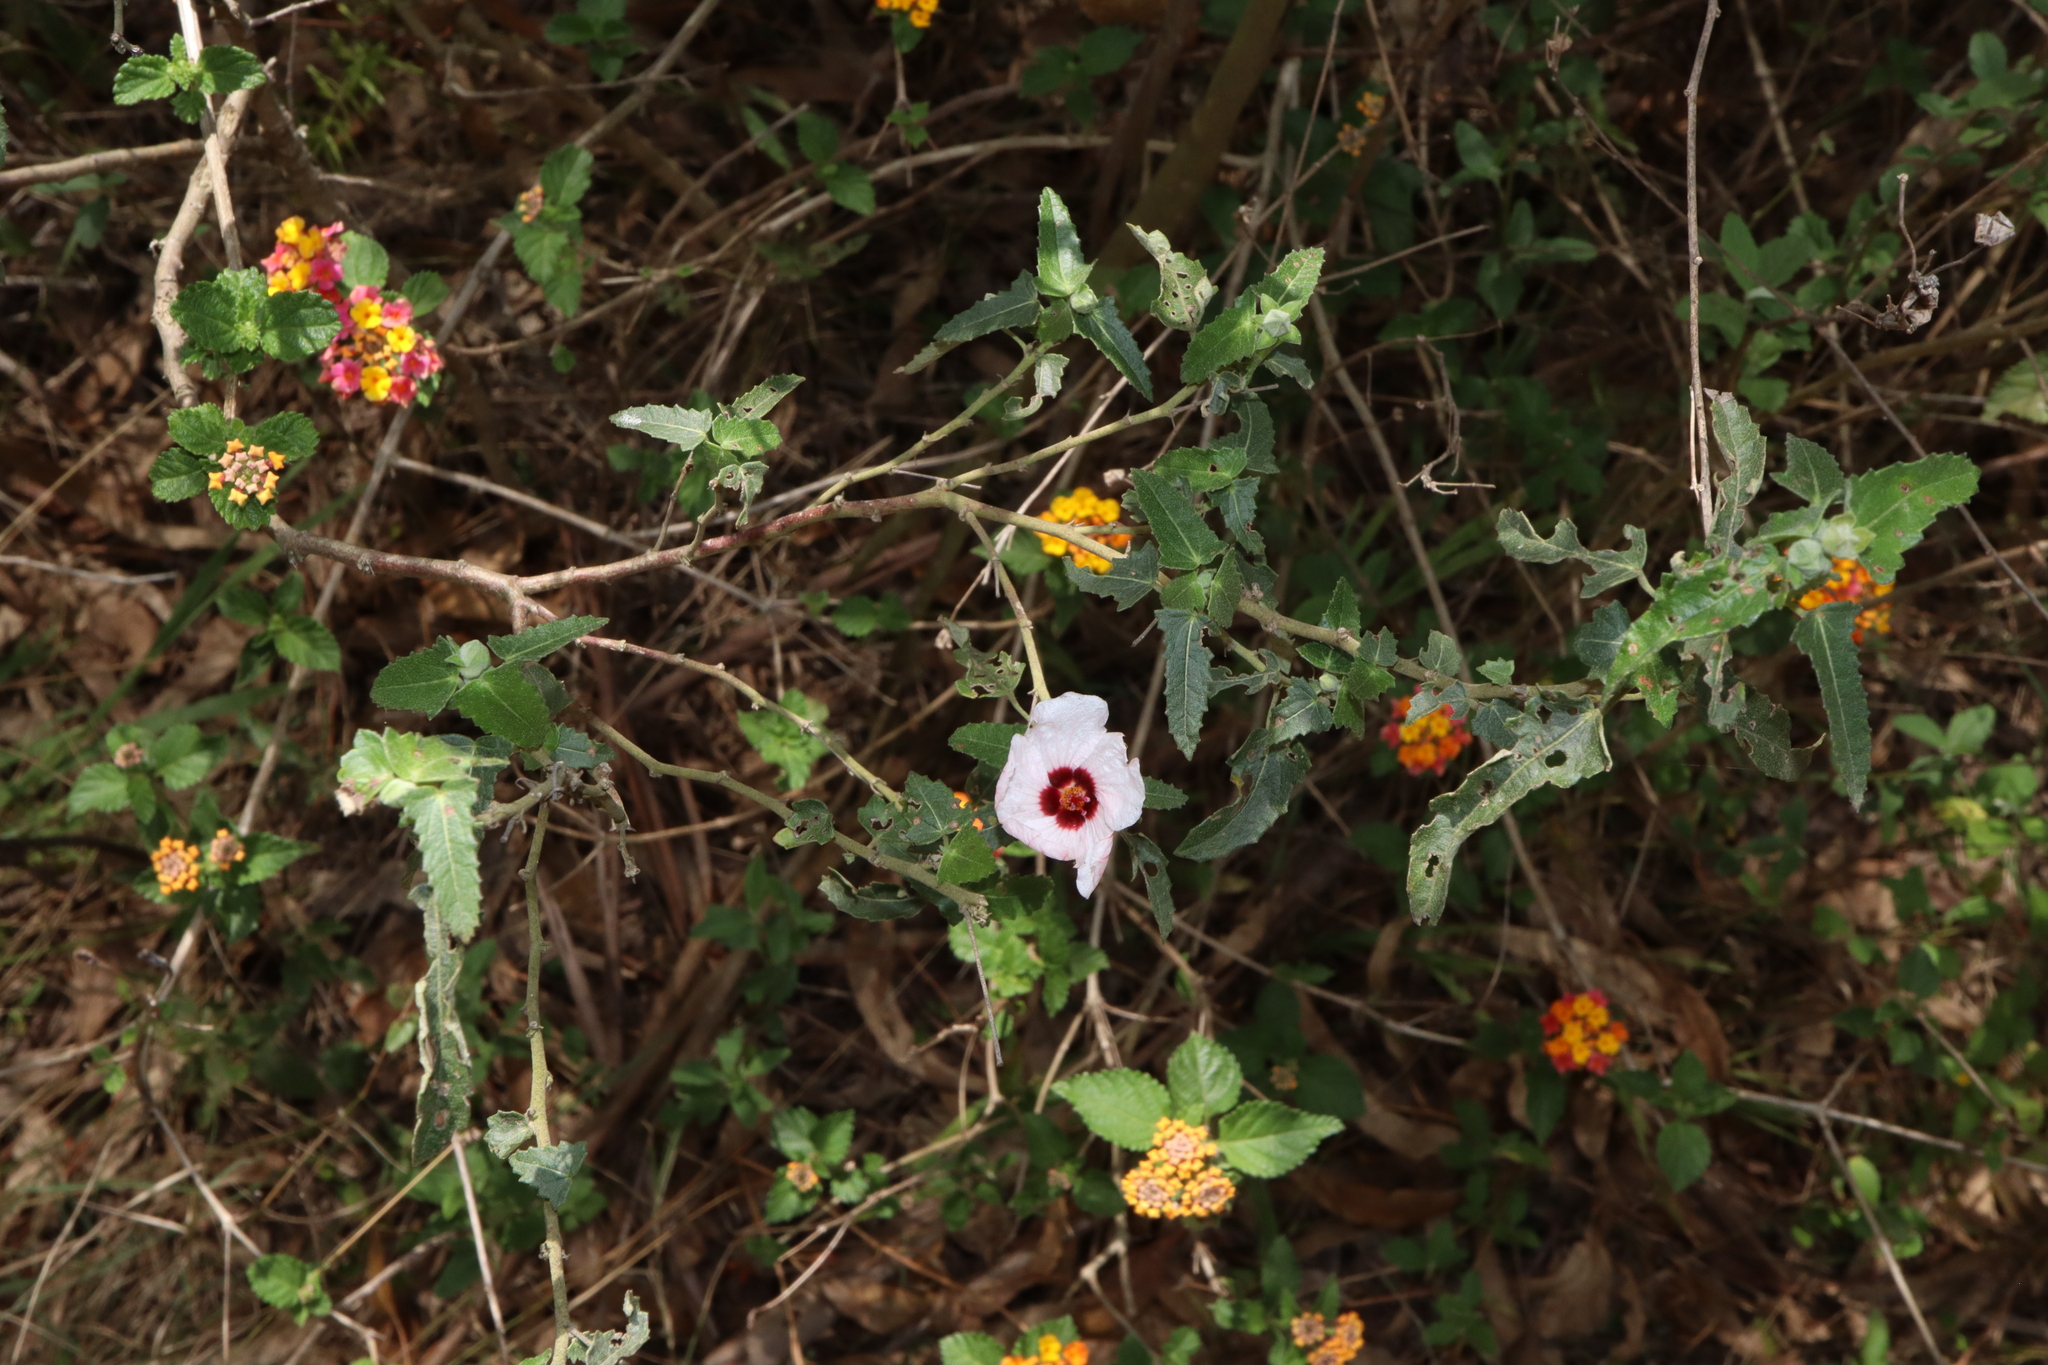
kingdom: Plantae
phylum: Tracheophyta
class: Magnoliopsida
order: Malvales
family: Malvaceae
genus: Pavonia
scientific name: Pavonia hastata
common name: Spearleaf swampmallow
